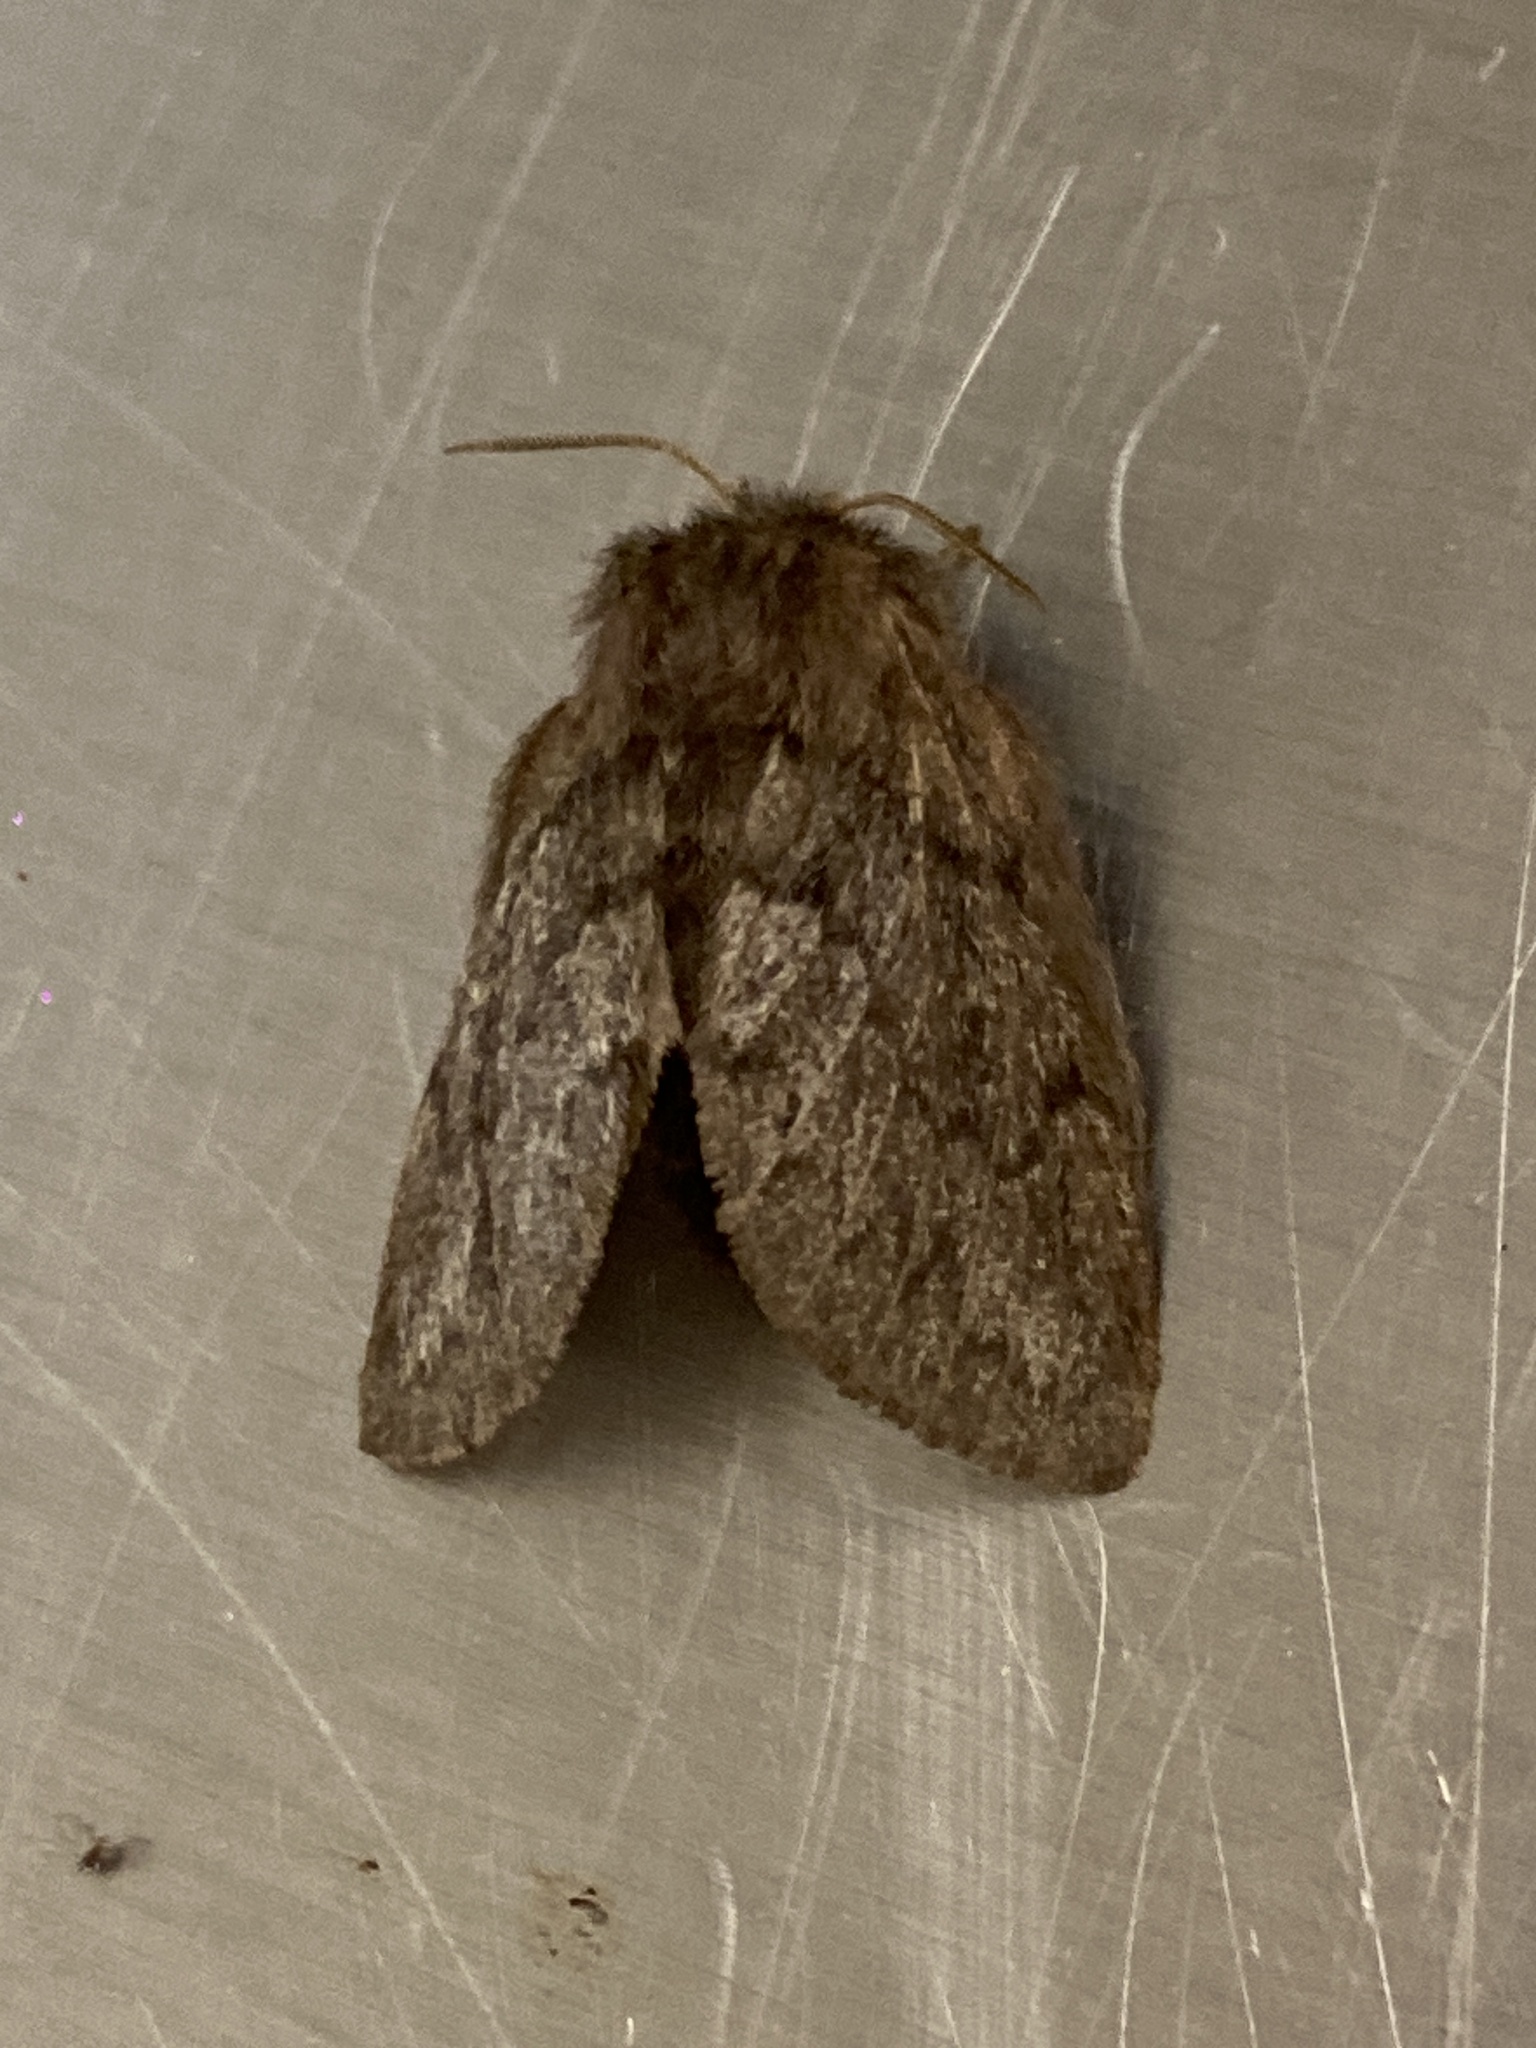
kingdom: Animalia
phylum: Arthropoda
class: Insecta
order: Lepidoptera
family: Lasiocampidae
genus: Pernattia
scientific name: Pernattia pusilla
